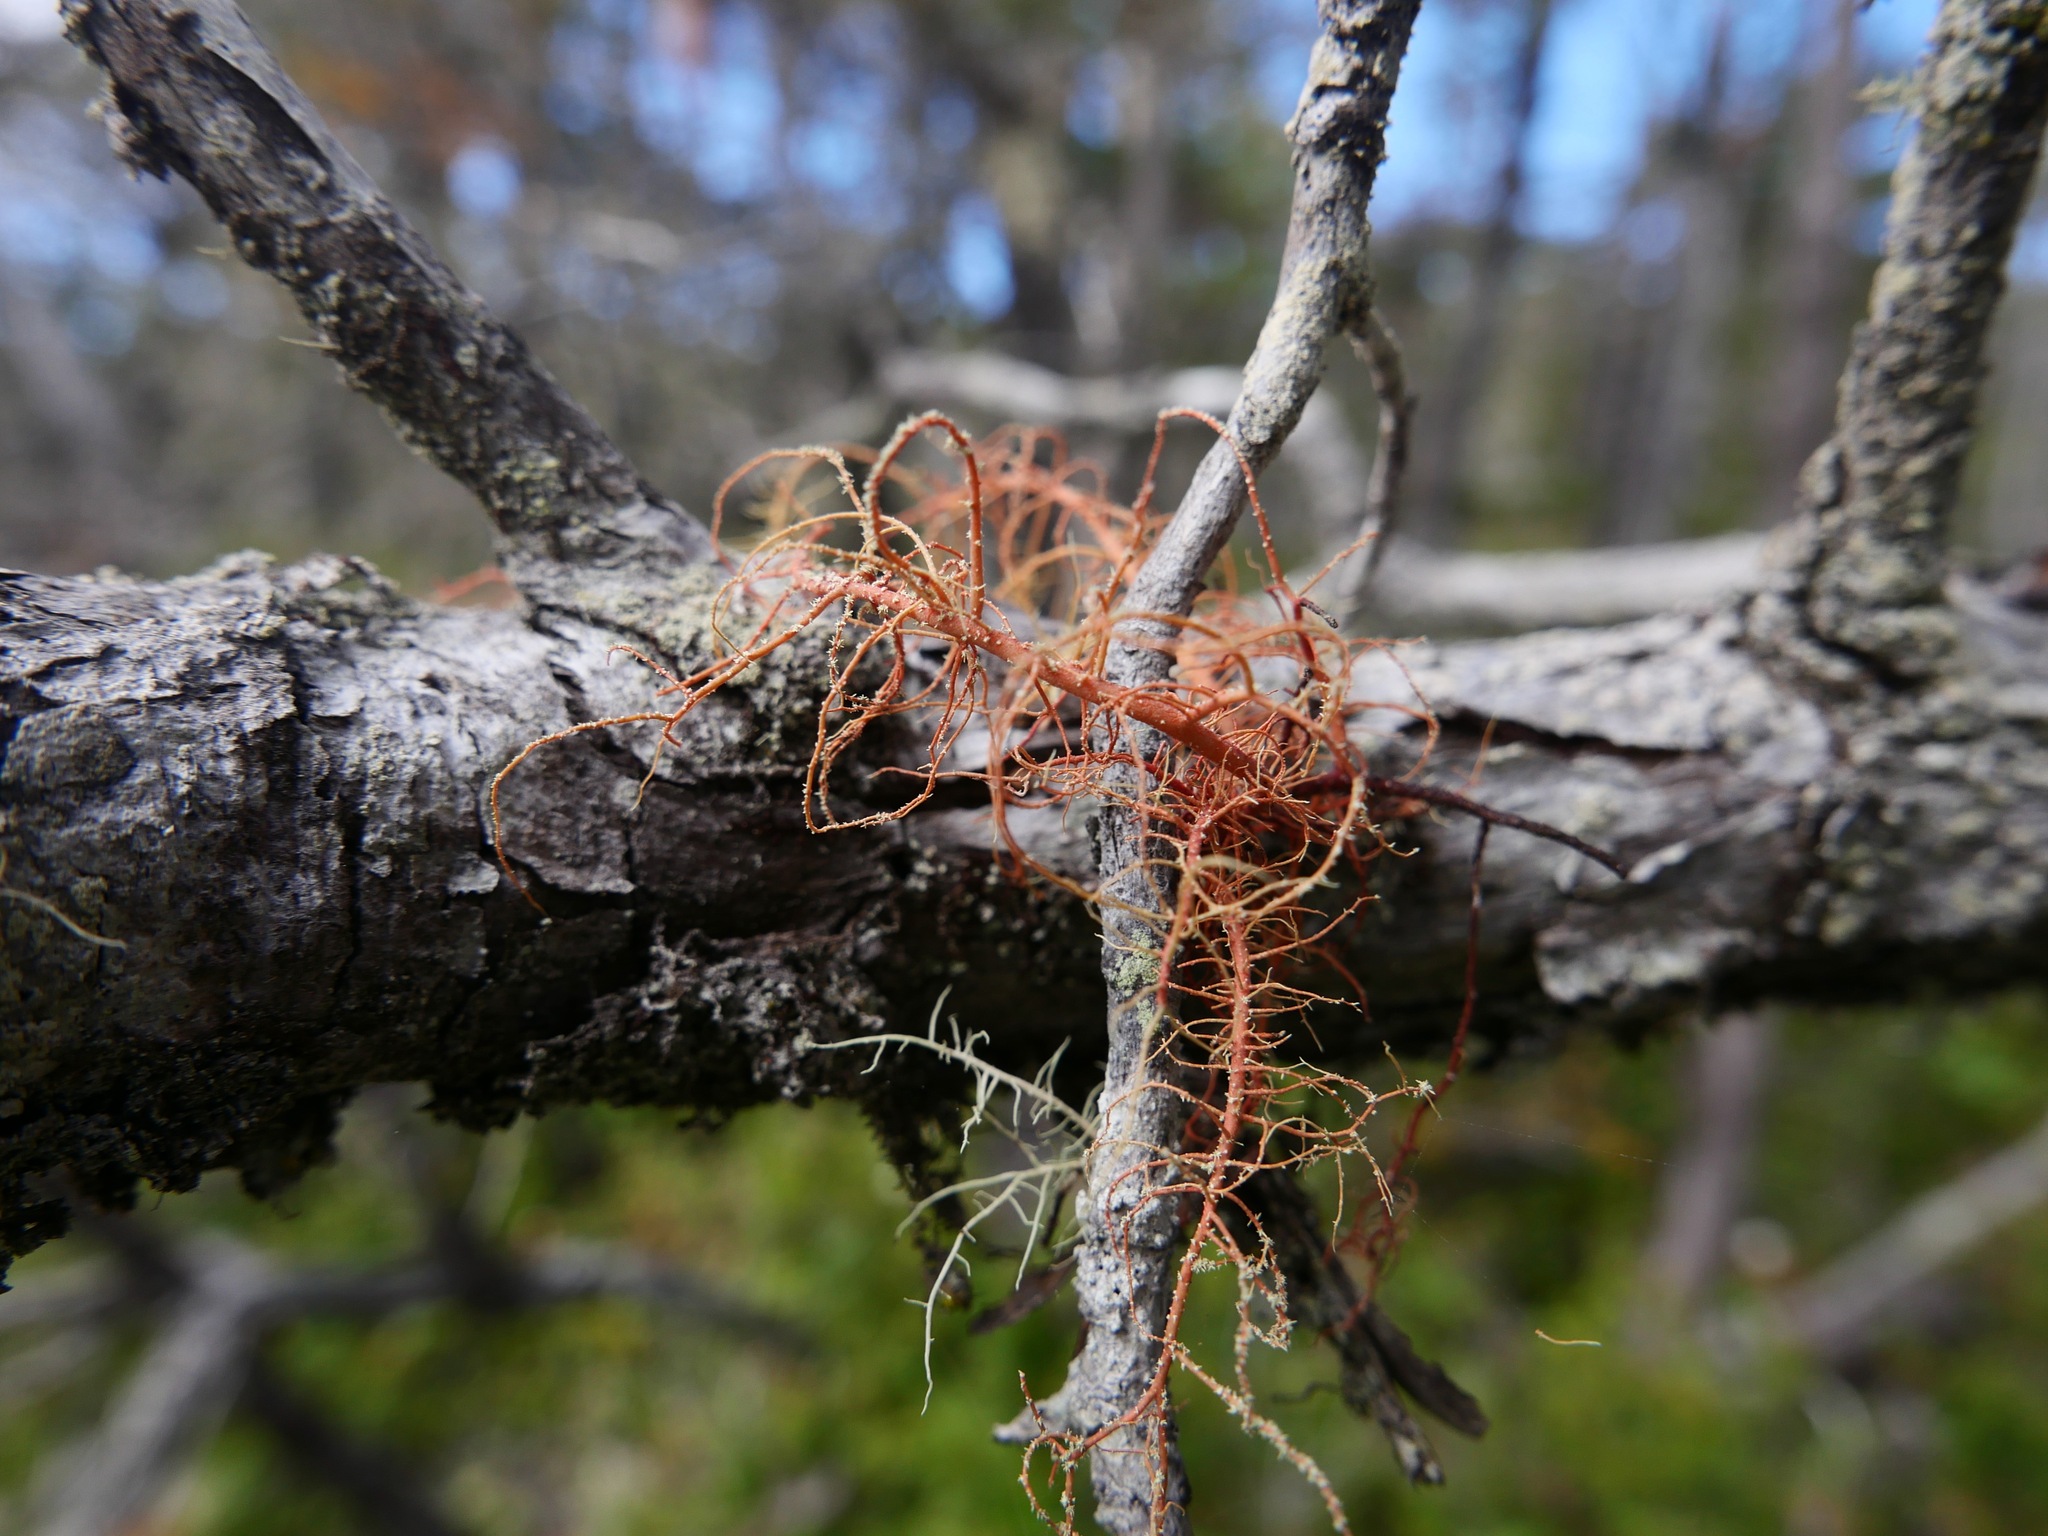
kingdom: Fungi
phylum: Ascomycota
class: Lecanoromycetes
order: Lecanorales
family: Parmeliaceae
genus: Usnea
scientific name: Usnea rubicunda
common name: Red beard lichen
